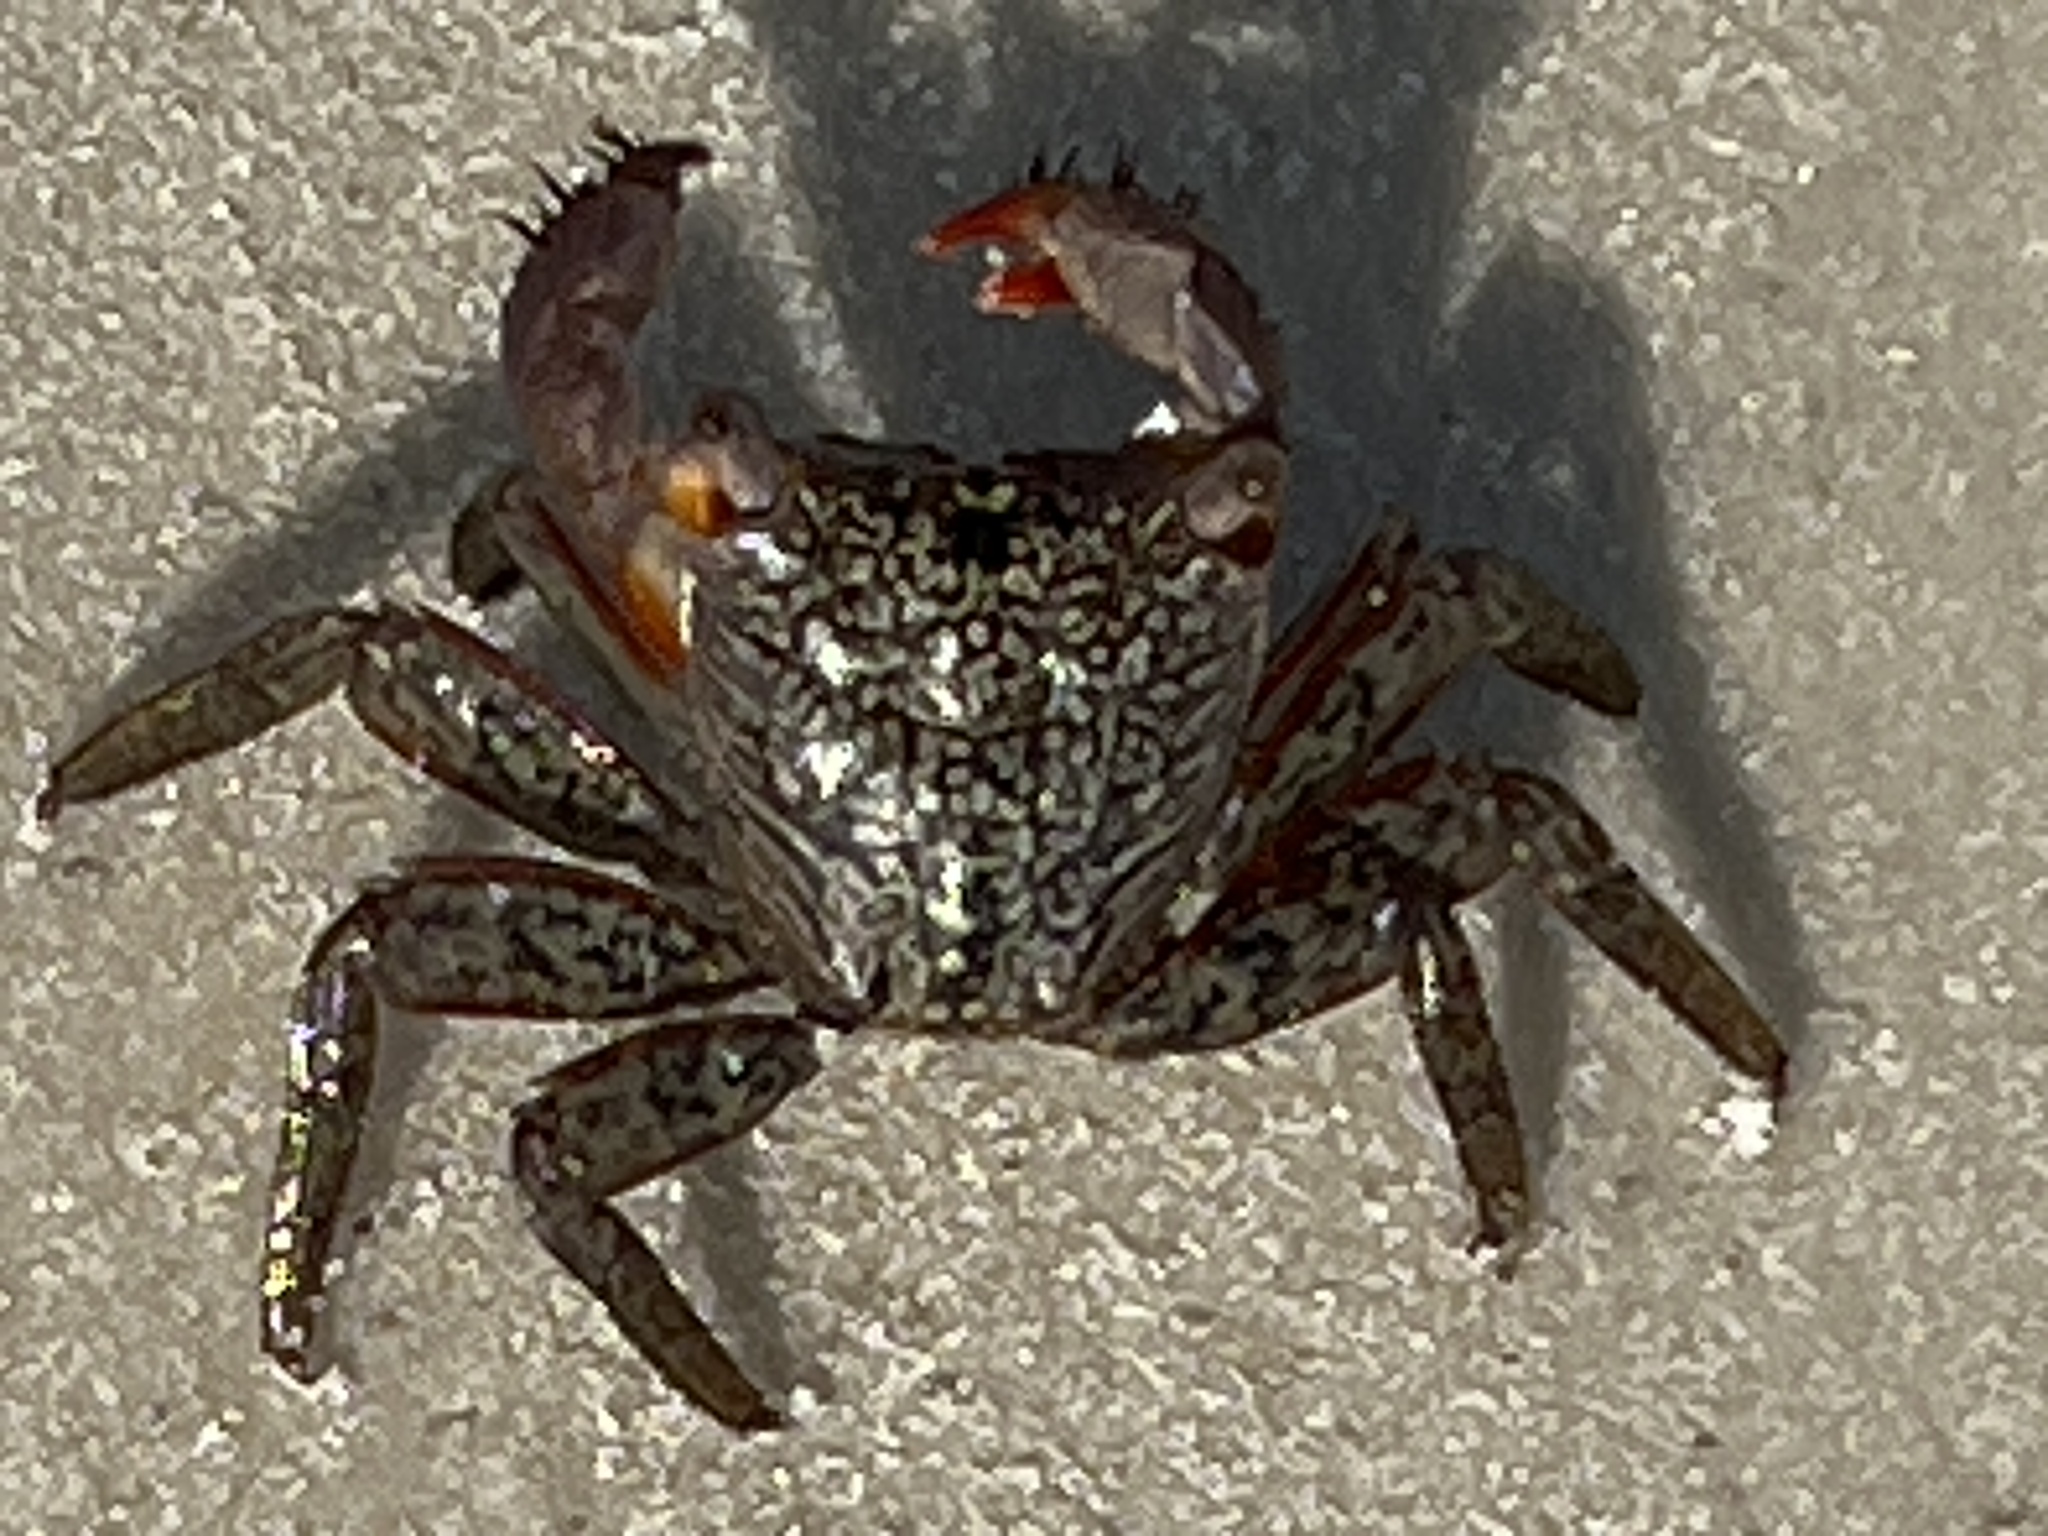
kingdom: Animalia
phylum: Arthropoda
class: Malacostraca
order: Decapoda
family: Sesarmidae
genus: Aratus
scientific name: Aratus pisonii
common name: Mangrove crab
